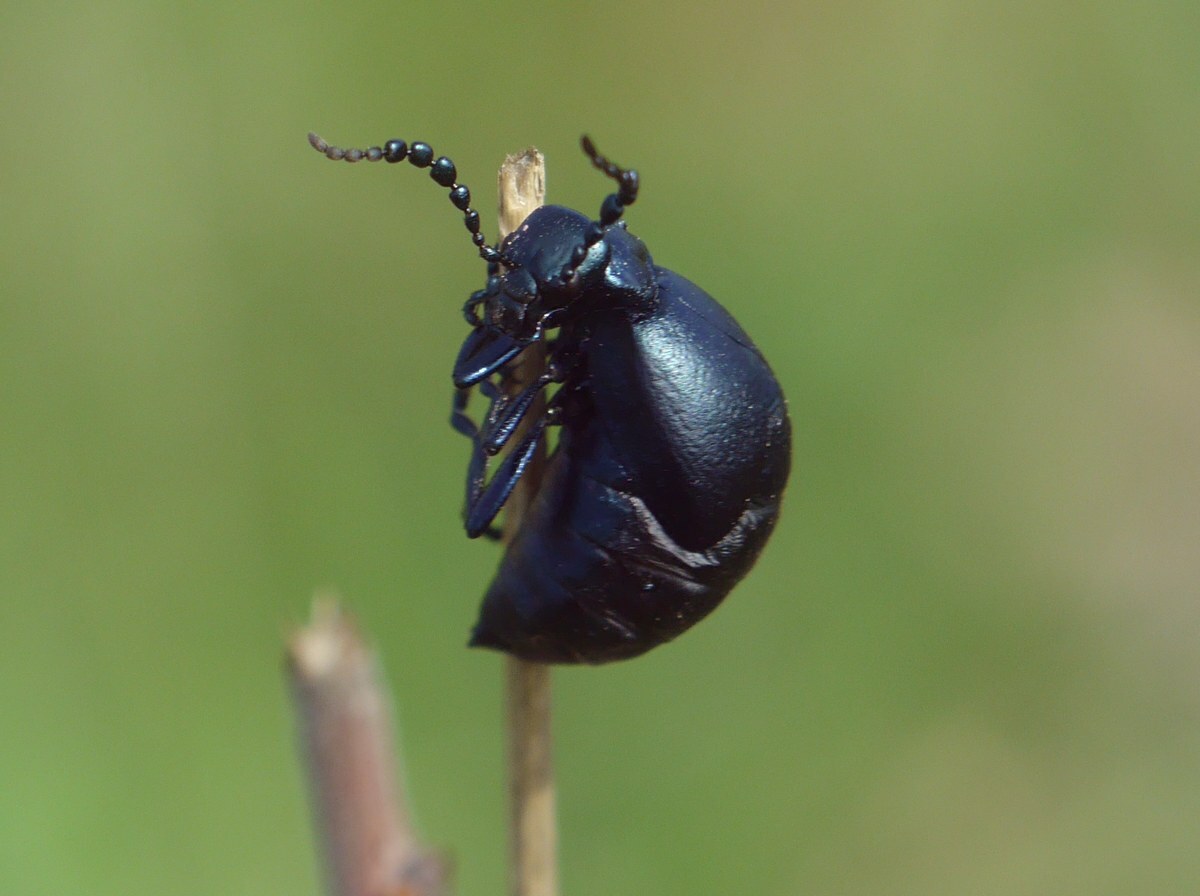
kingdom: Animalia
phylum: Arthropoda
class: Insecta
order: Coleoptera
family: Meloidae
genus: Meloe
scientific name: Meloe autumnalis
